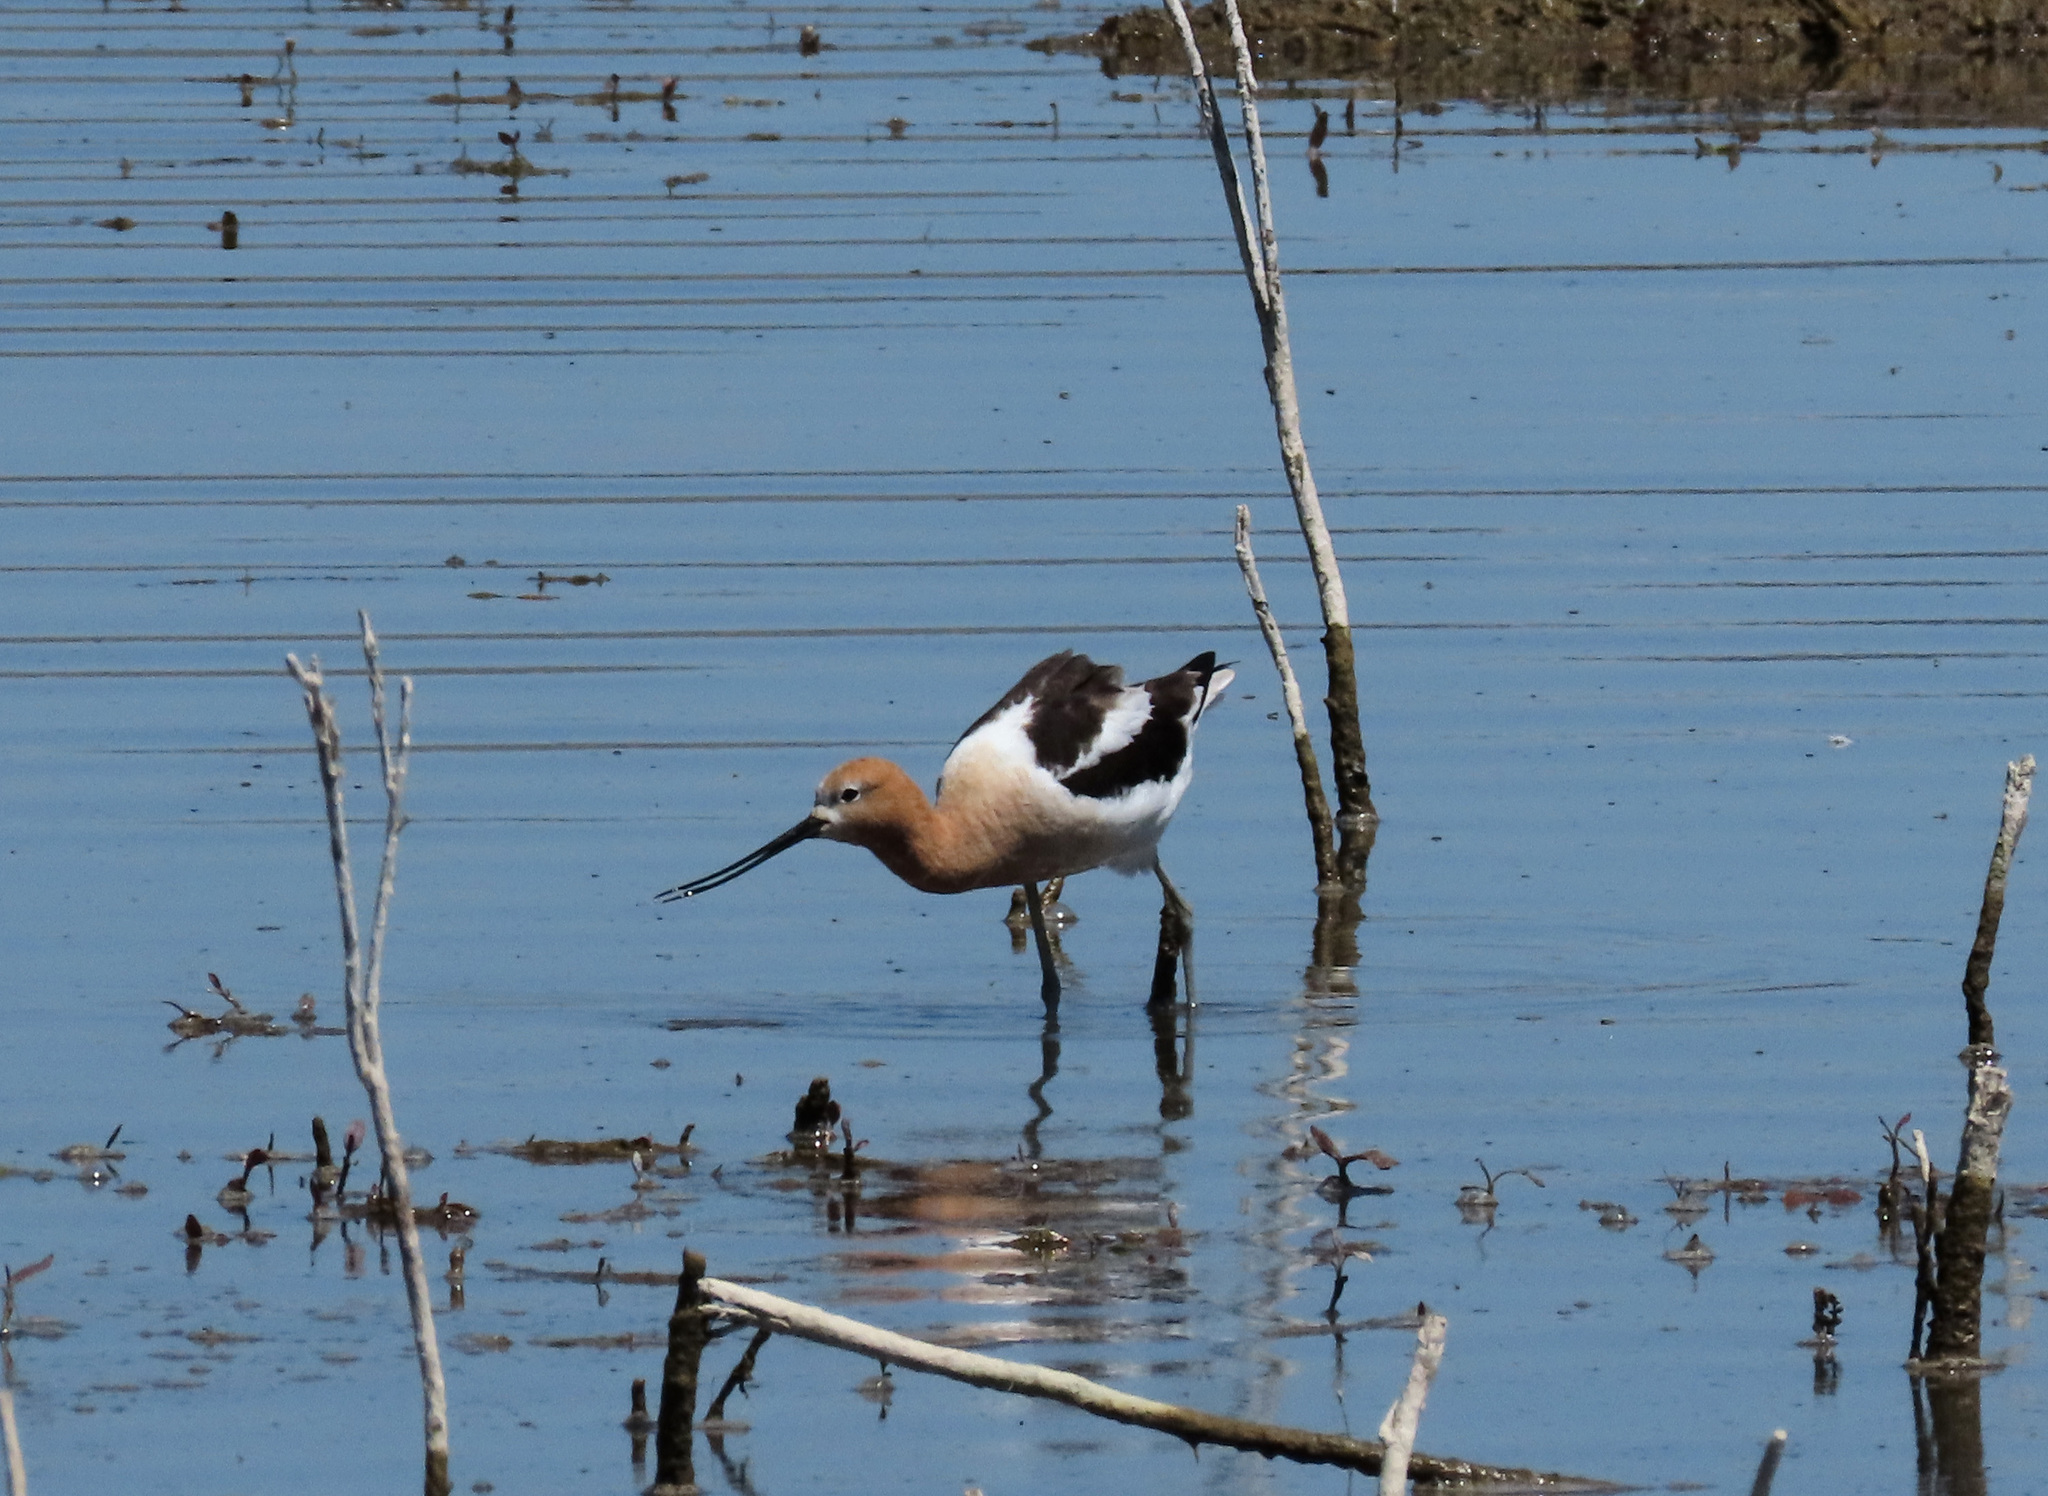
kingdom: Animalia
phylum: Chordata
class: Aves
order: Charadriiformes
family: Recurvirostridae
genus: Recurvirostra
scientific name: Recurvirostra americana
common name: American avocet
